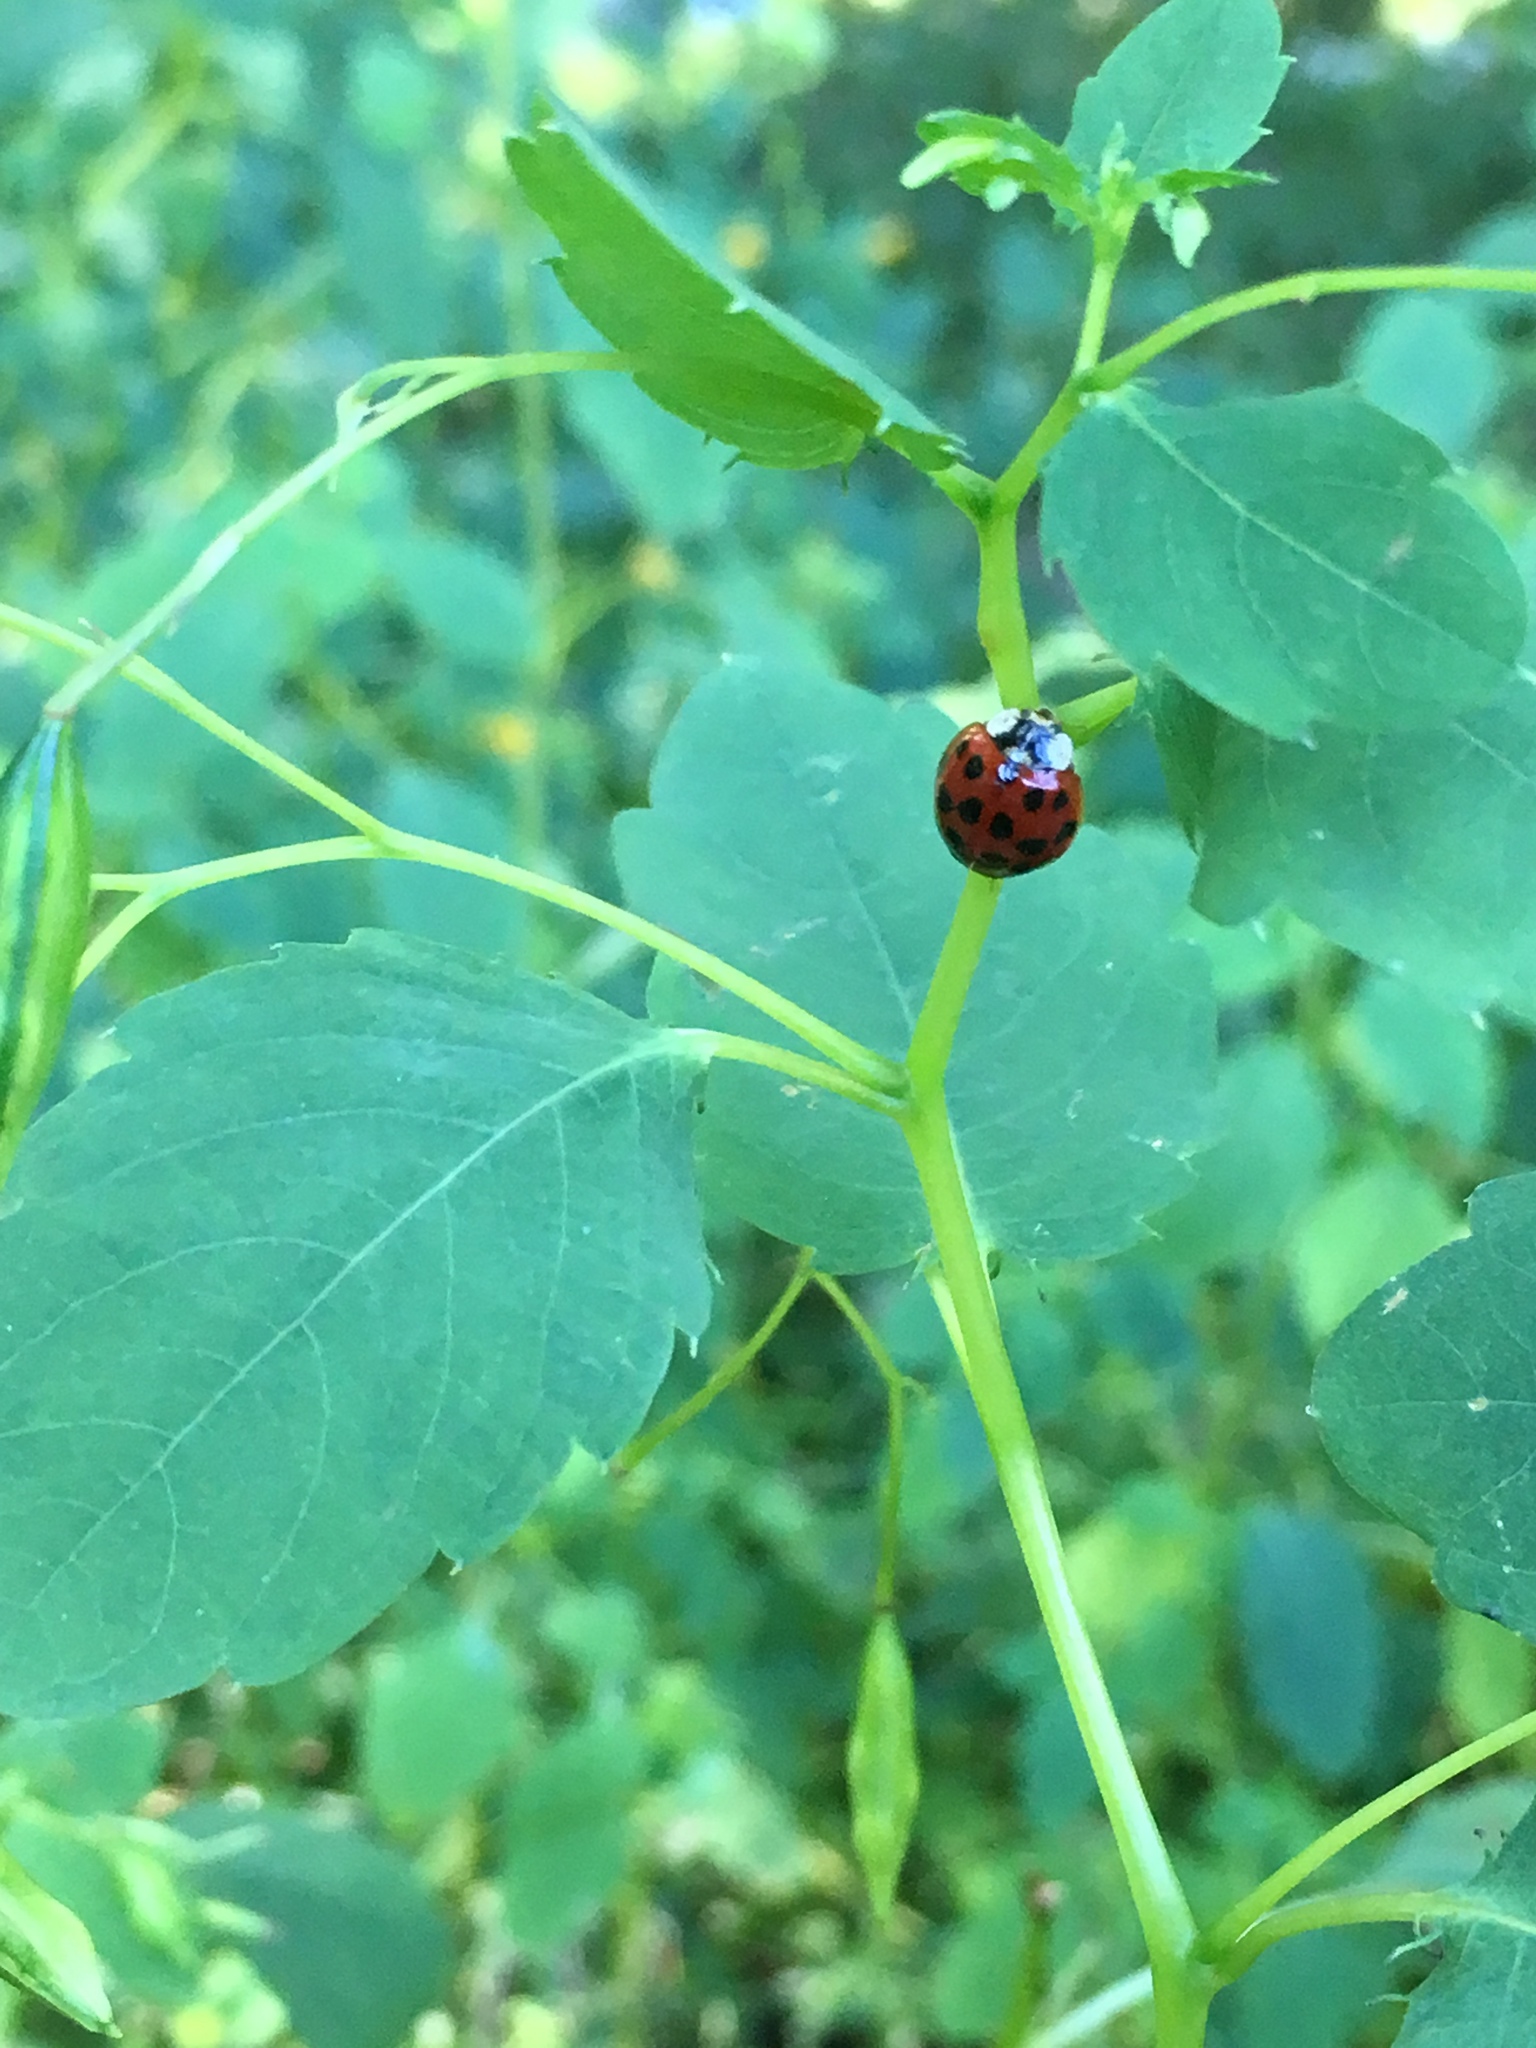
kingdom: Animalia
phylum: Arthropoda
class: Insecta
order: Coleoptera
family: Coccinellidae
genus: Harmonia
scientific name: Harmonia axyridis
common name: Harlequin ladybird
